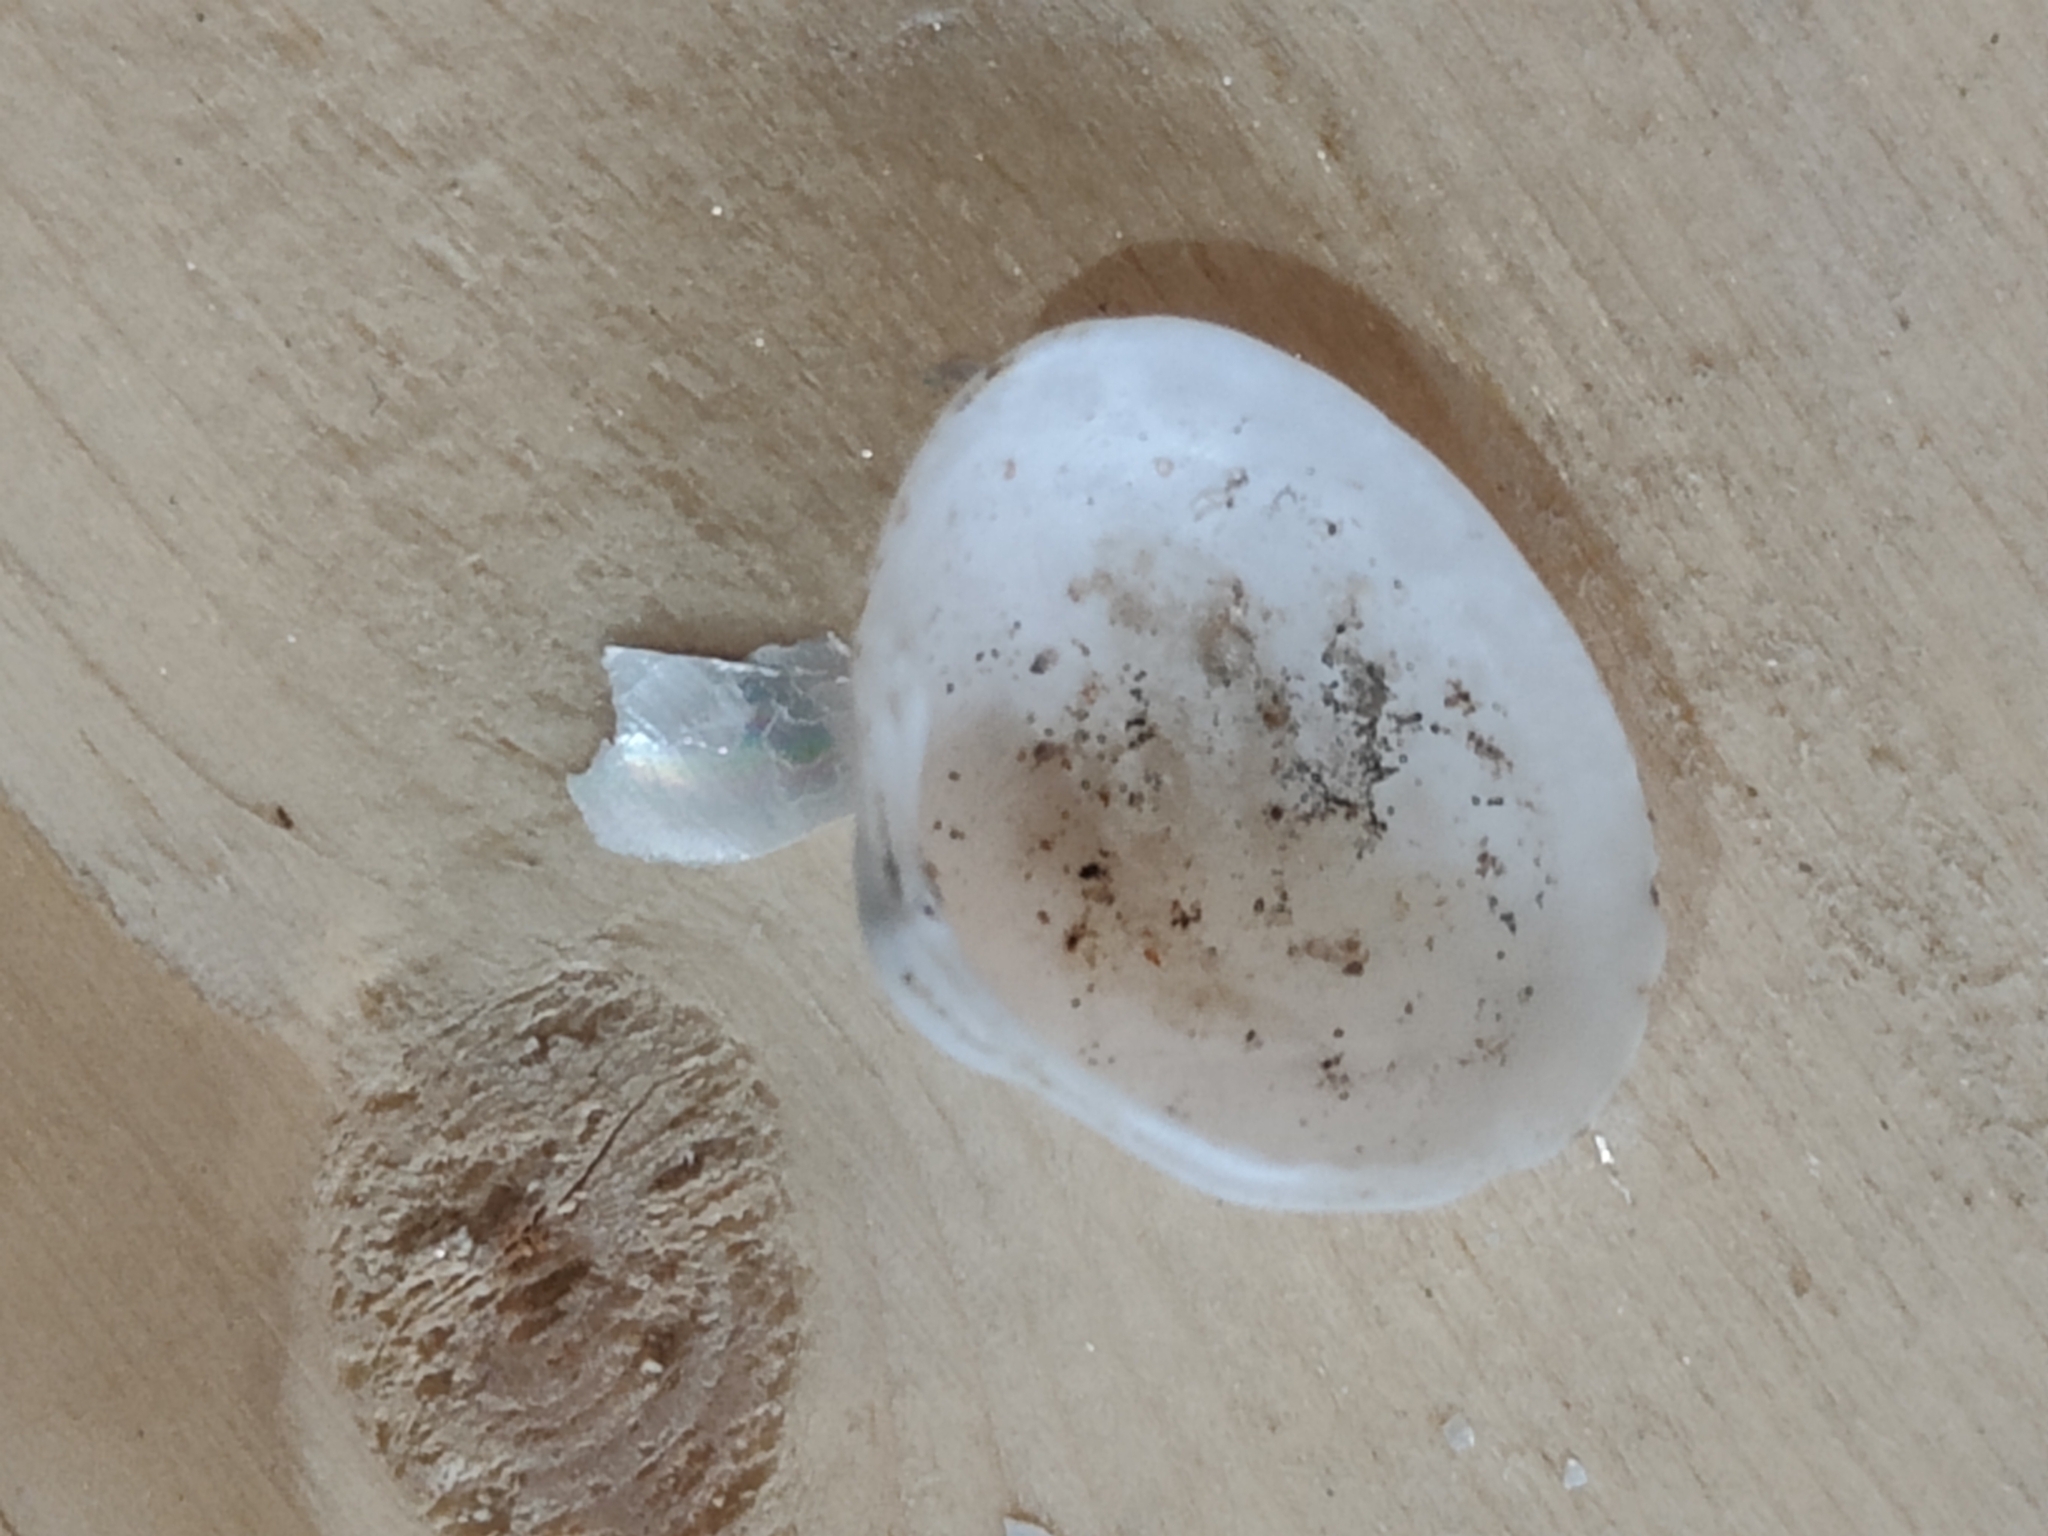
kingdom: Animalia
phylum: Mollusca
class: Bivalvia
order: Sphaeriida
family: Sphaeriidae
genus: Sphaerium
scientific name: Sphaerium striatinum
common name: Striated fingernailclam
